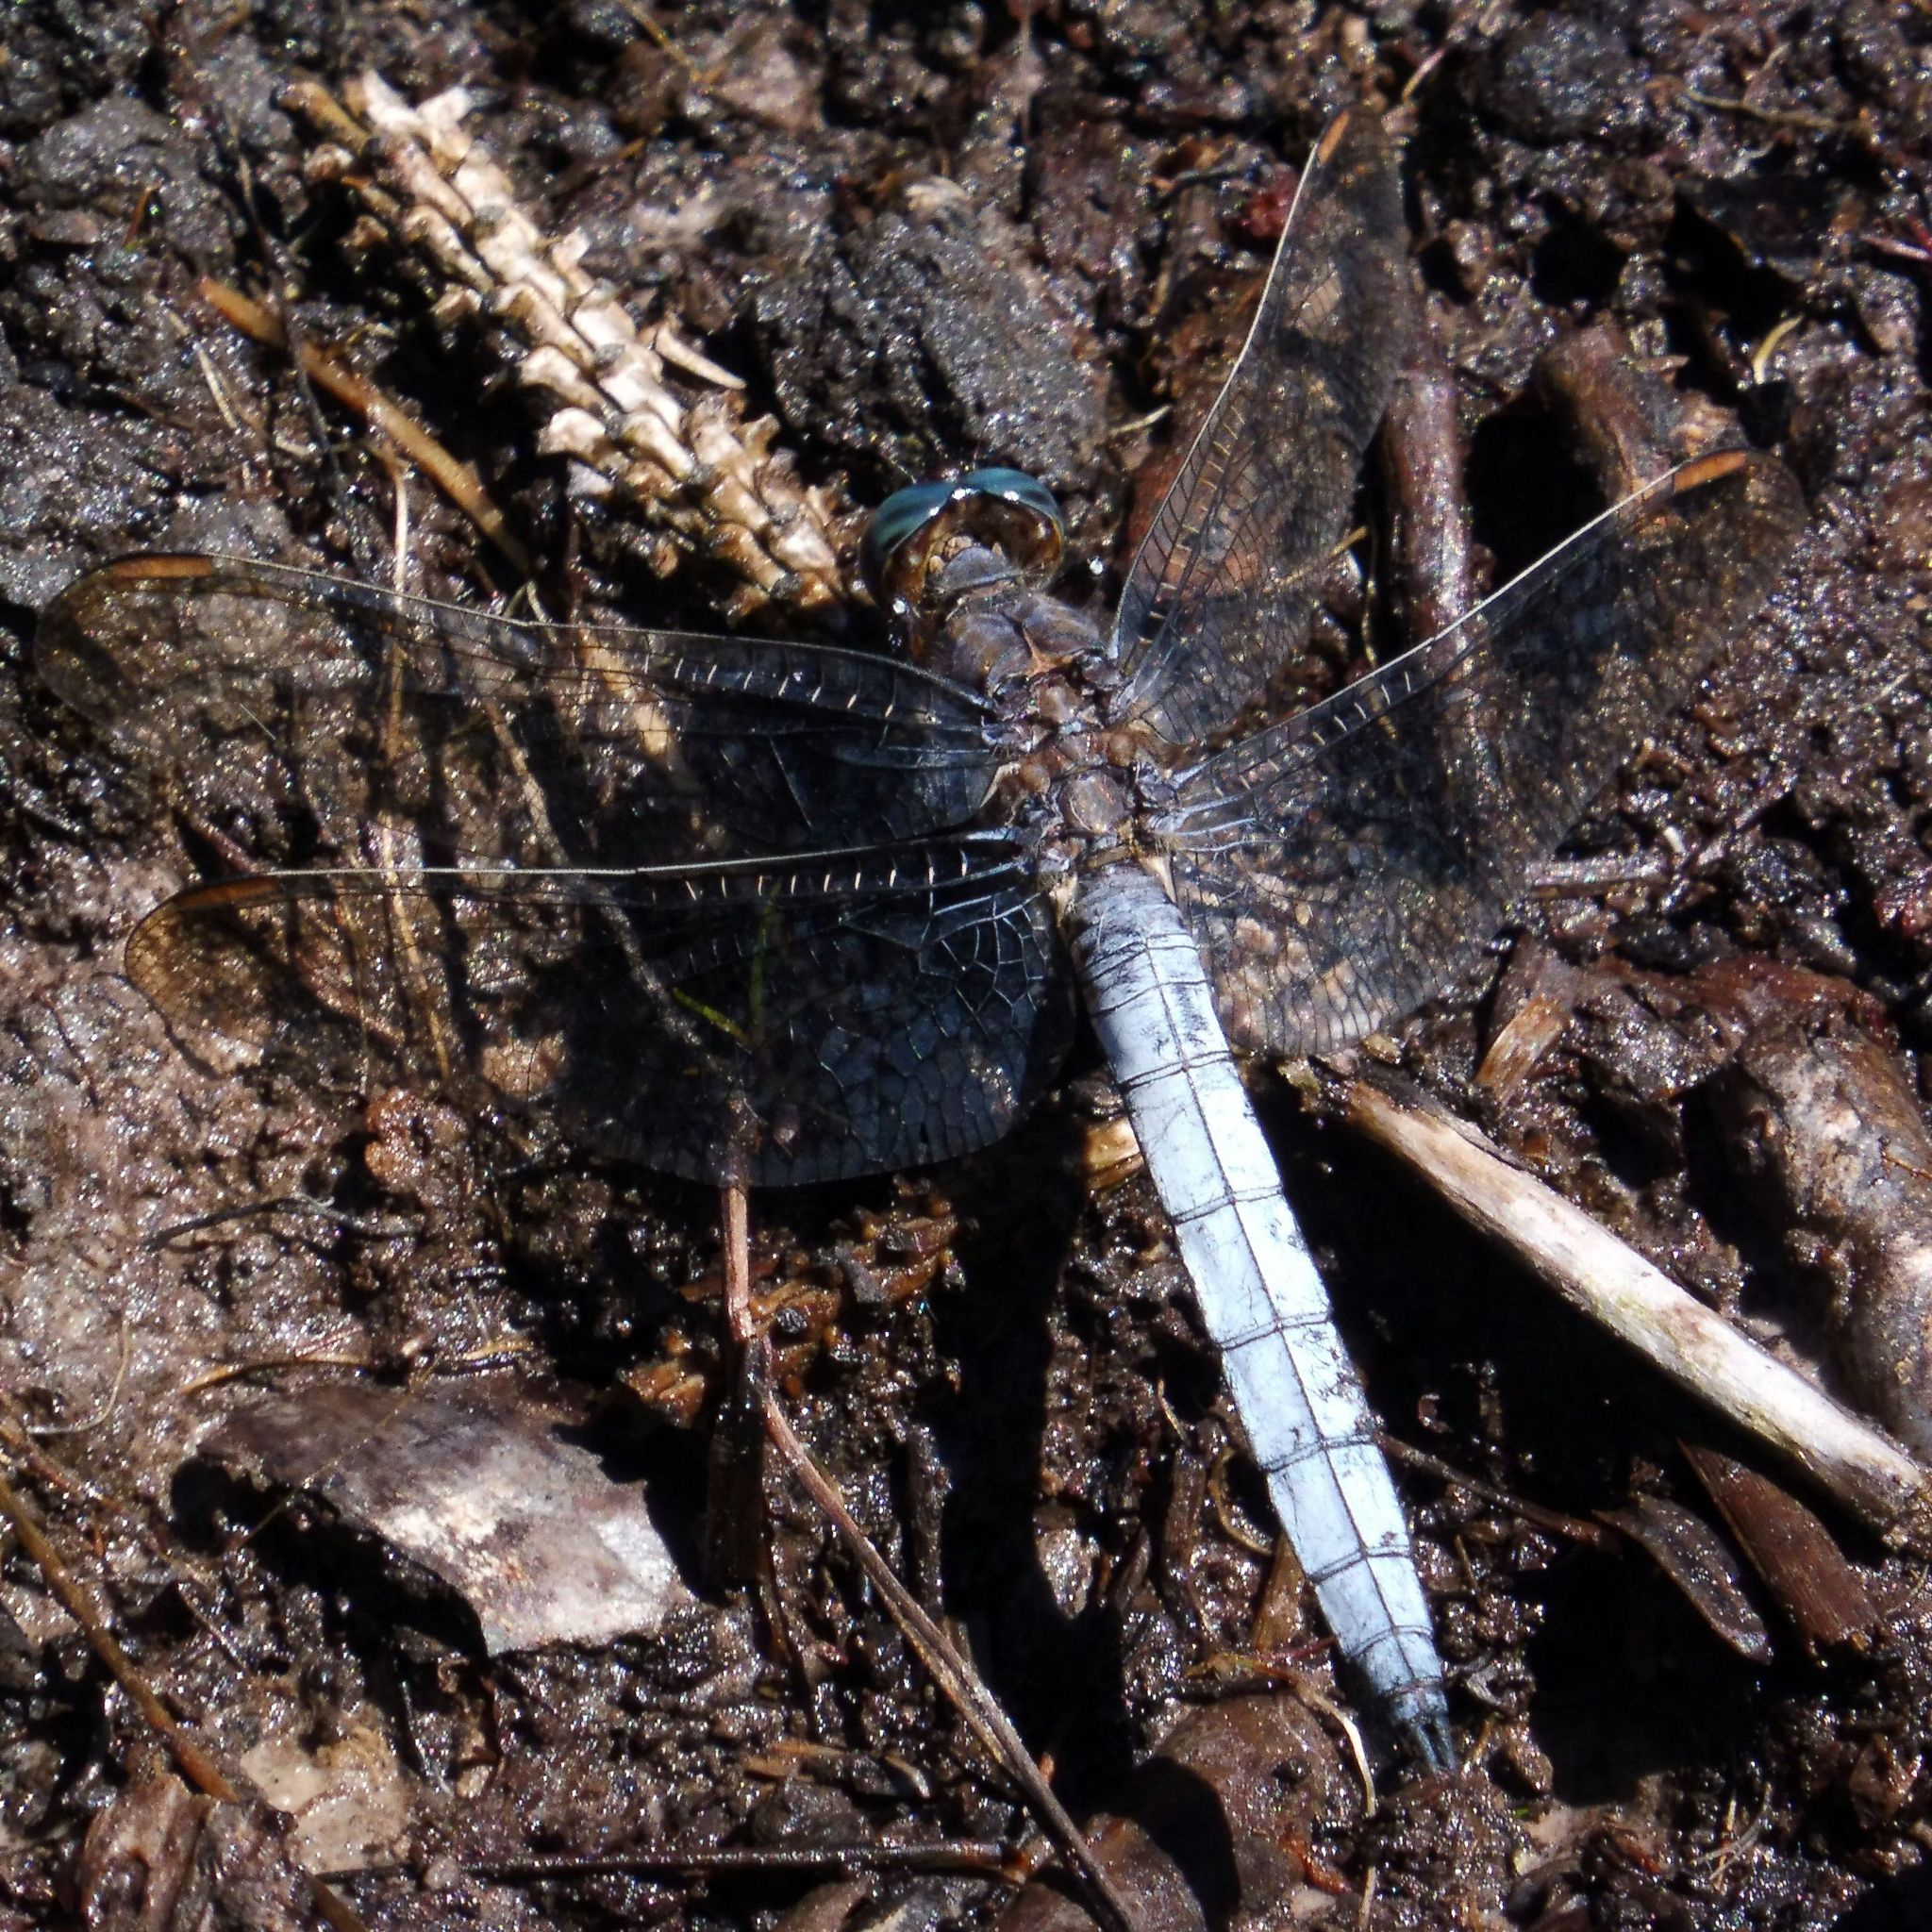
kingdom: Animalia
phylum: Arthropoda
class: Insecta
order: Odonata
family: Libellulidae
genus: Orthetrum
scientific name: Orthetrum coerulescens
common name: Keeled skimmer
